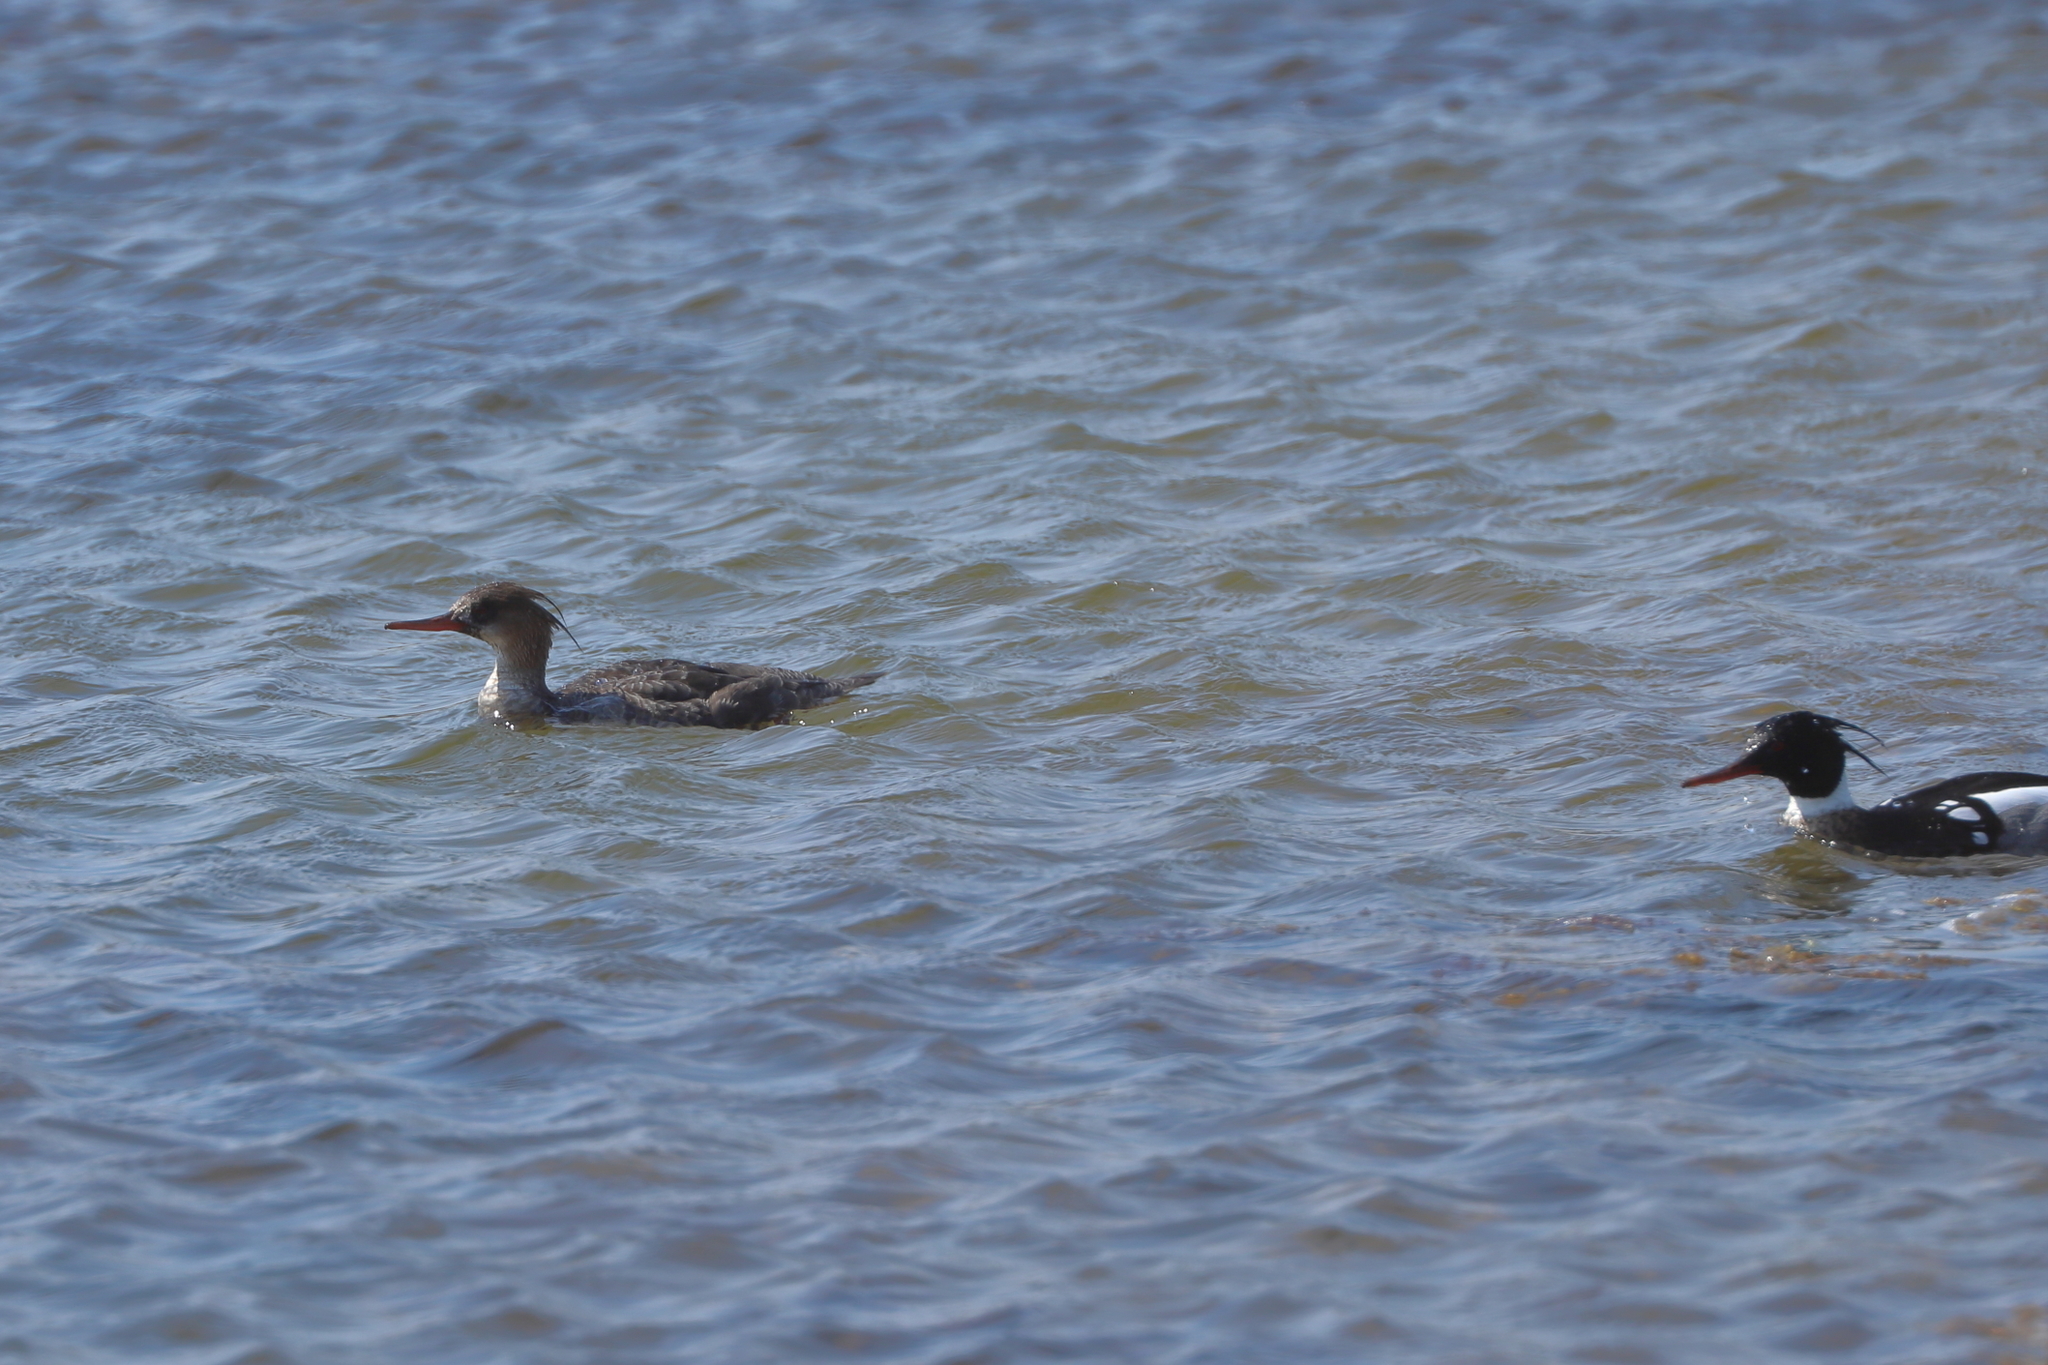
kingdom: Animalia
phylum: Chordata
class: Aves
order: Anseriformes
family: Anatidae
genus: Mergus
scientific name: Mergus serrator
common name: Red-breasted merganser
